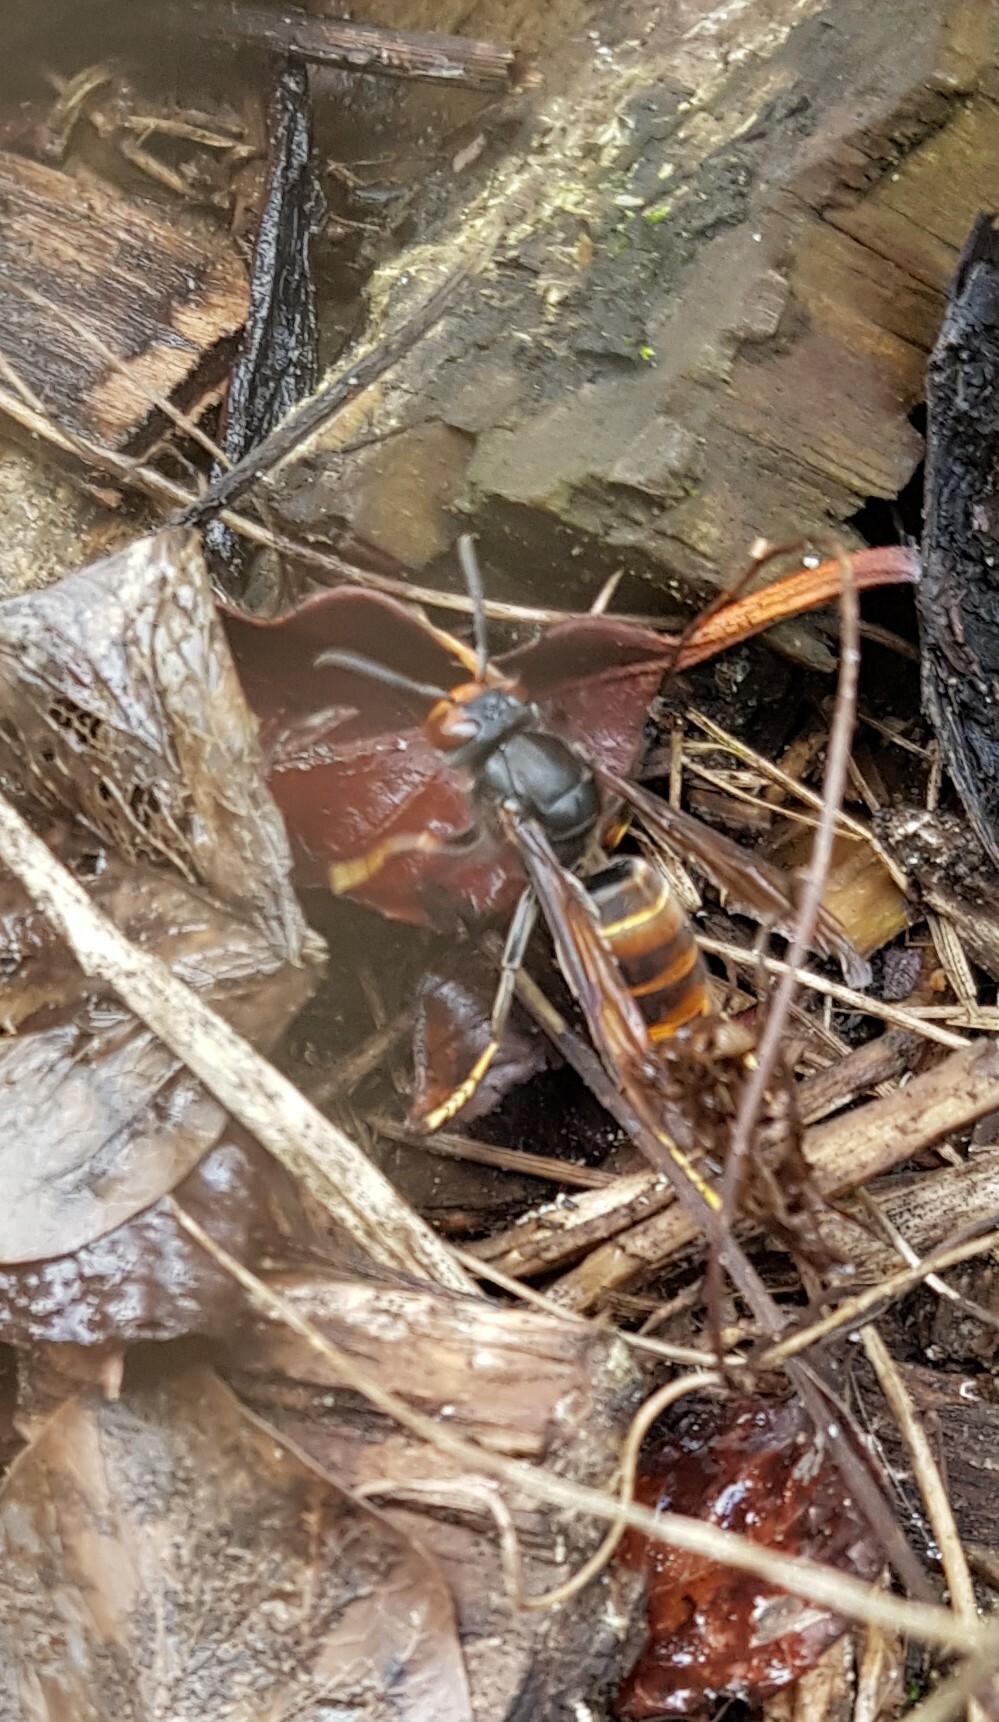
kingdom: Animalia
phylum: Arthropoda
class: Insecta
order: Hymenoptera
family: Vespidae
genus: Vespa
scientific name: Vespa velutina
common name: Asian hornet
